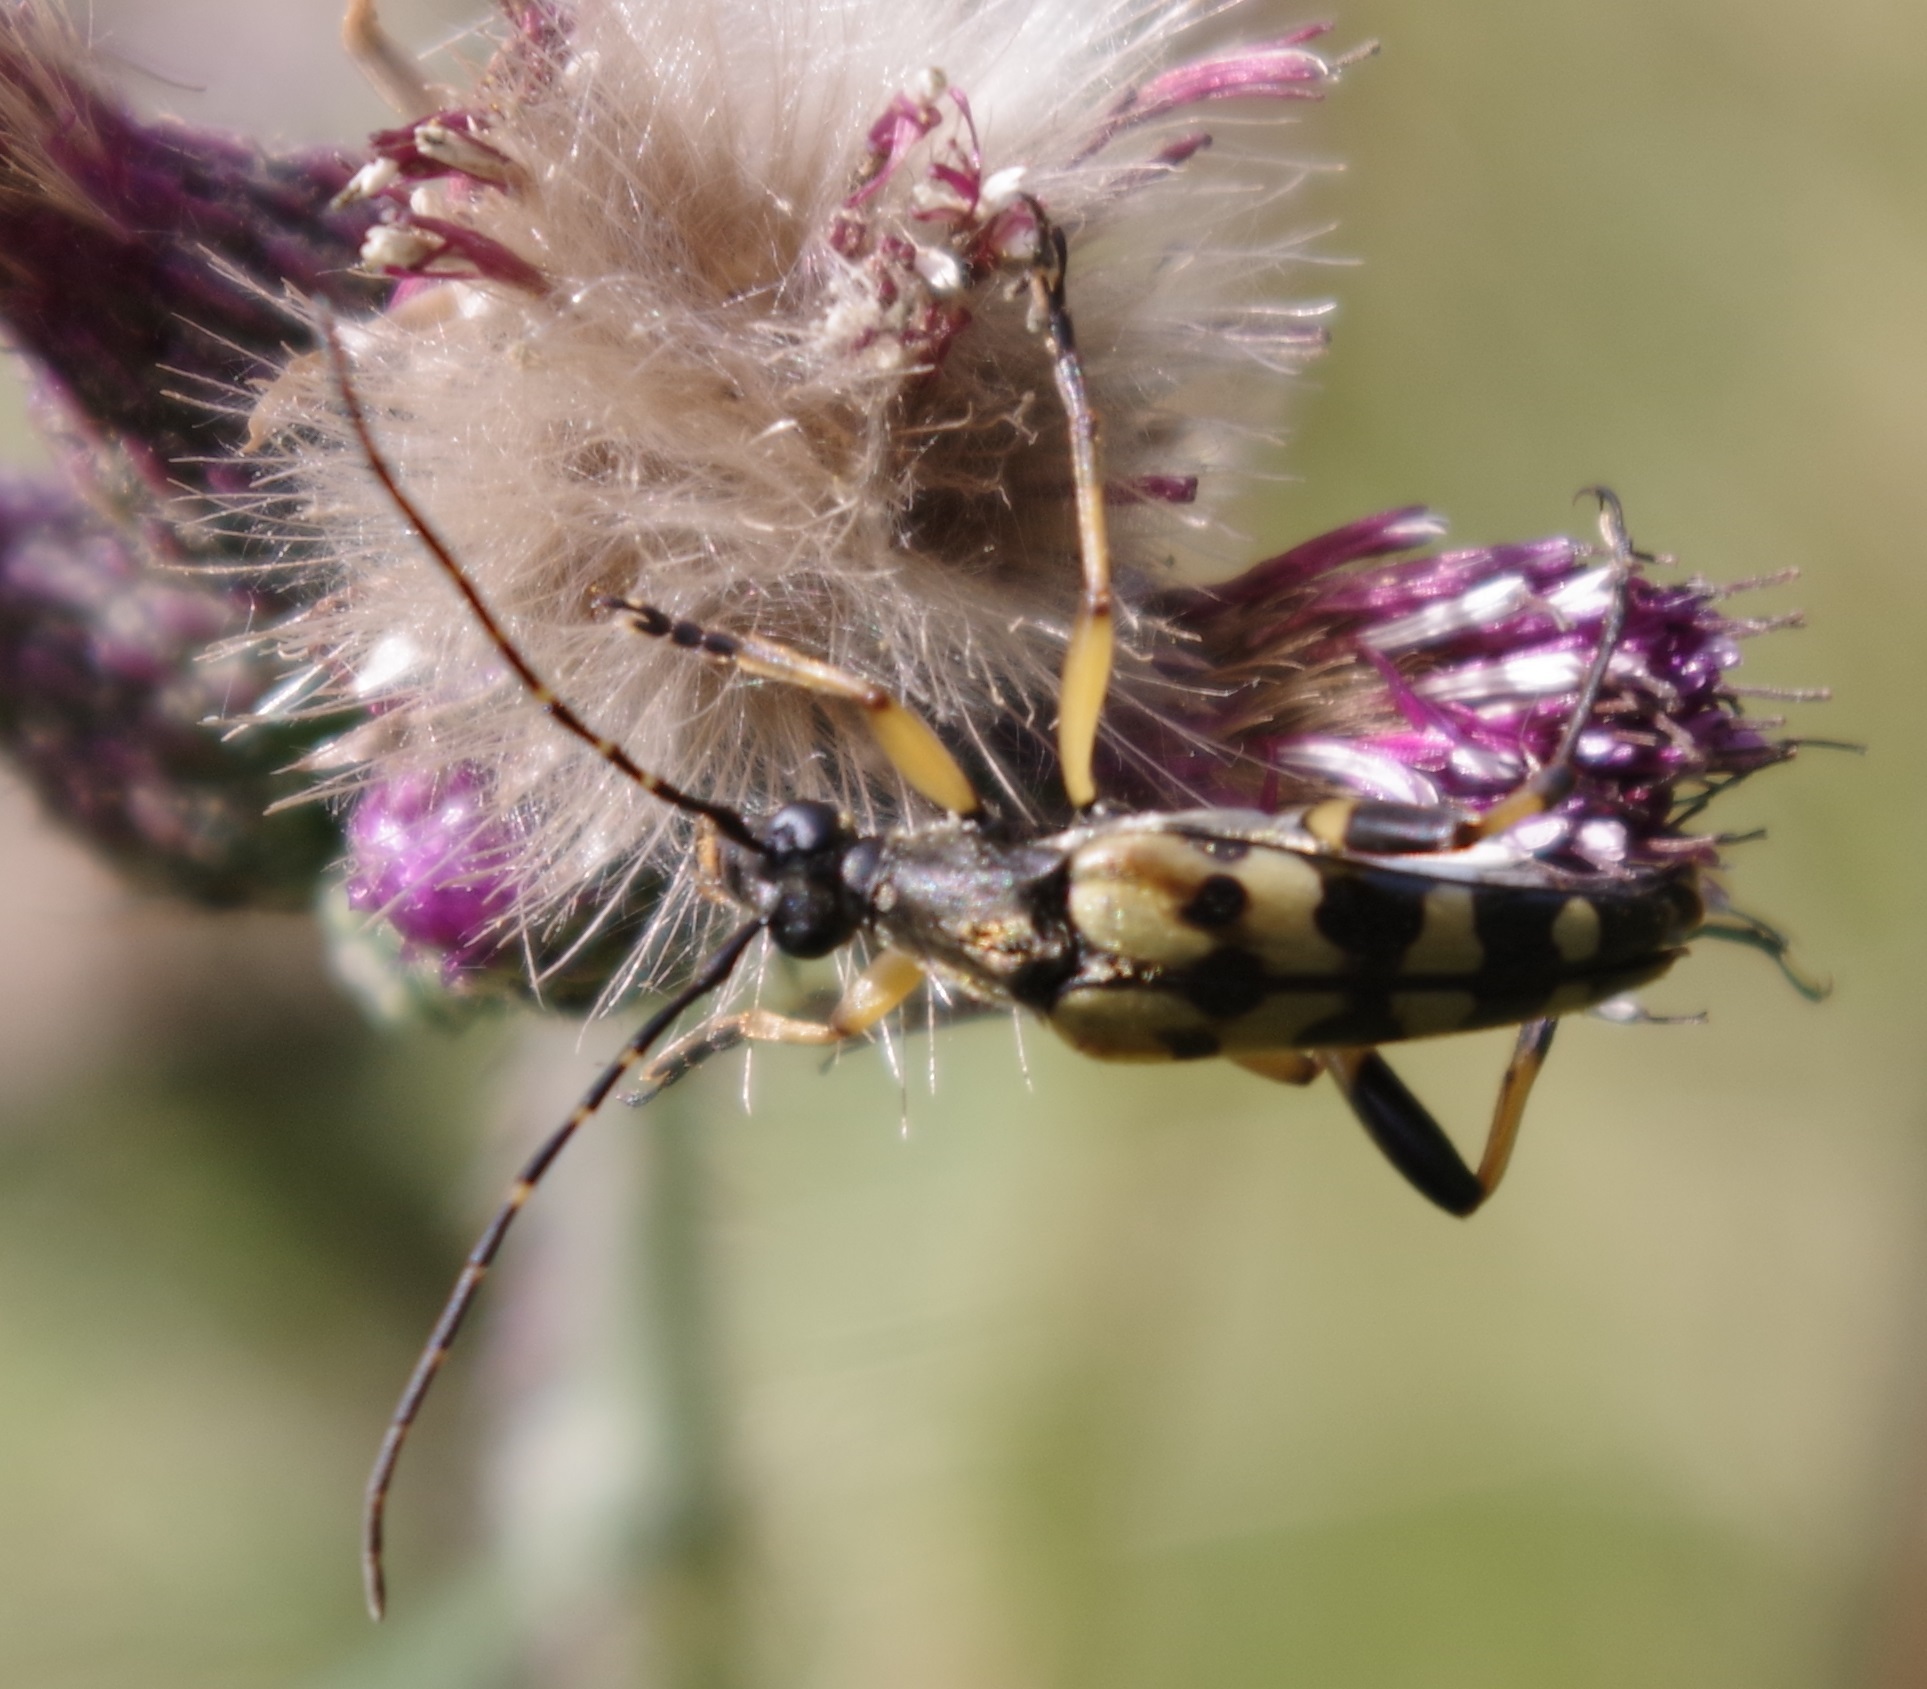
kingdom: Animalia
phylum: Arthropoda
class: Insecta
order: Coleoptera
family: Cerambycidae
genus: Rutpela
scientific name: Rutpela maculata
